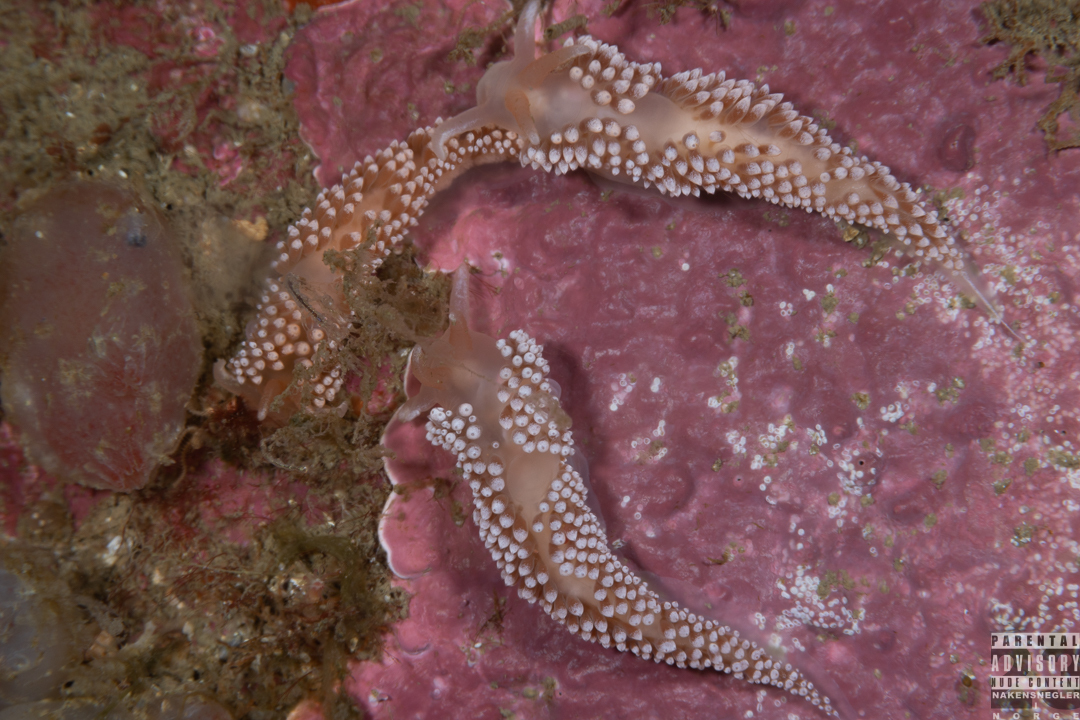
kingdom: Animalia
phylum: Mollusca
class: Gastropoda
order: Nudibranchia
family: Coryphellidae
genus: Coryphella
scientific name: Coryphella verrucosa
